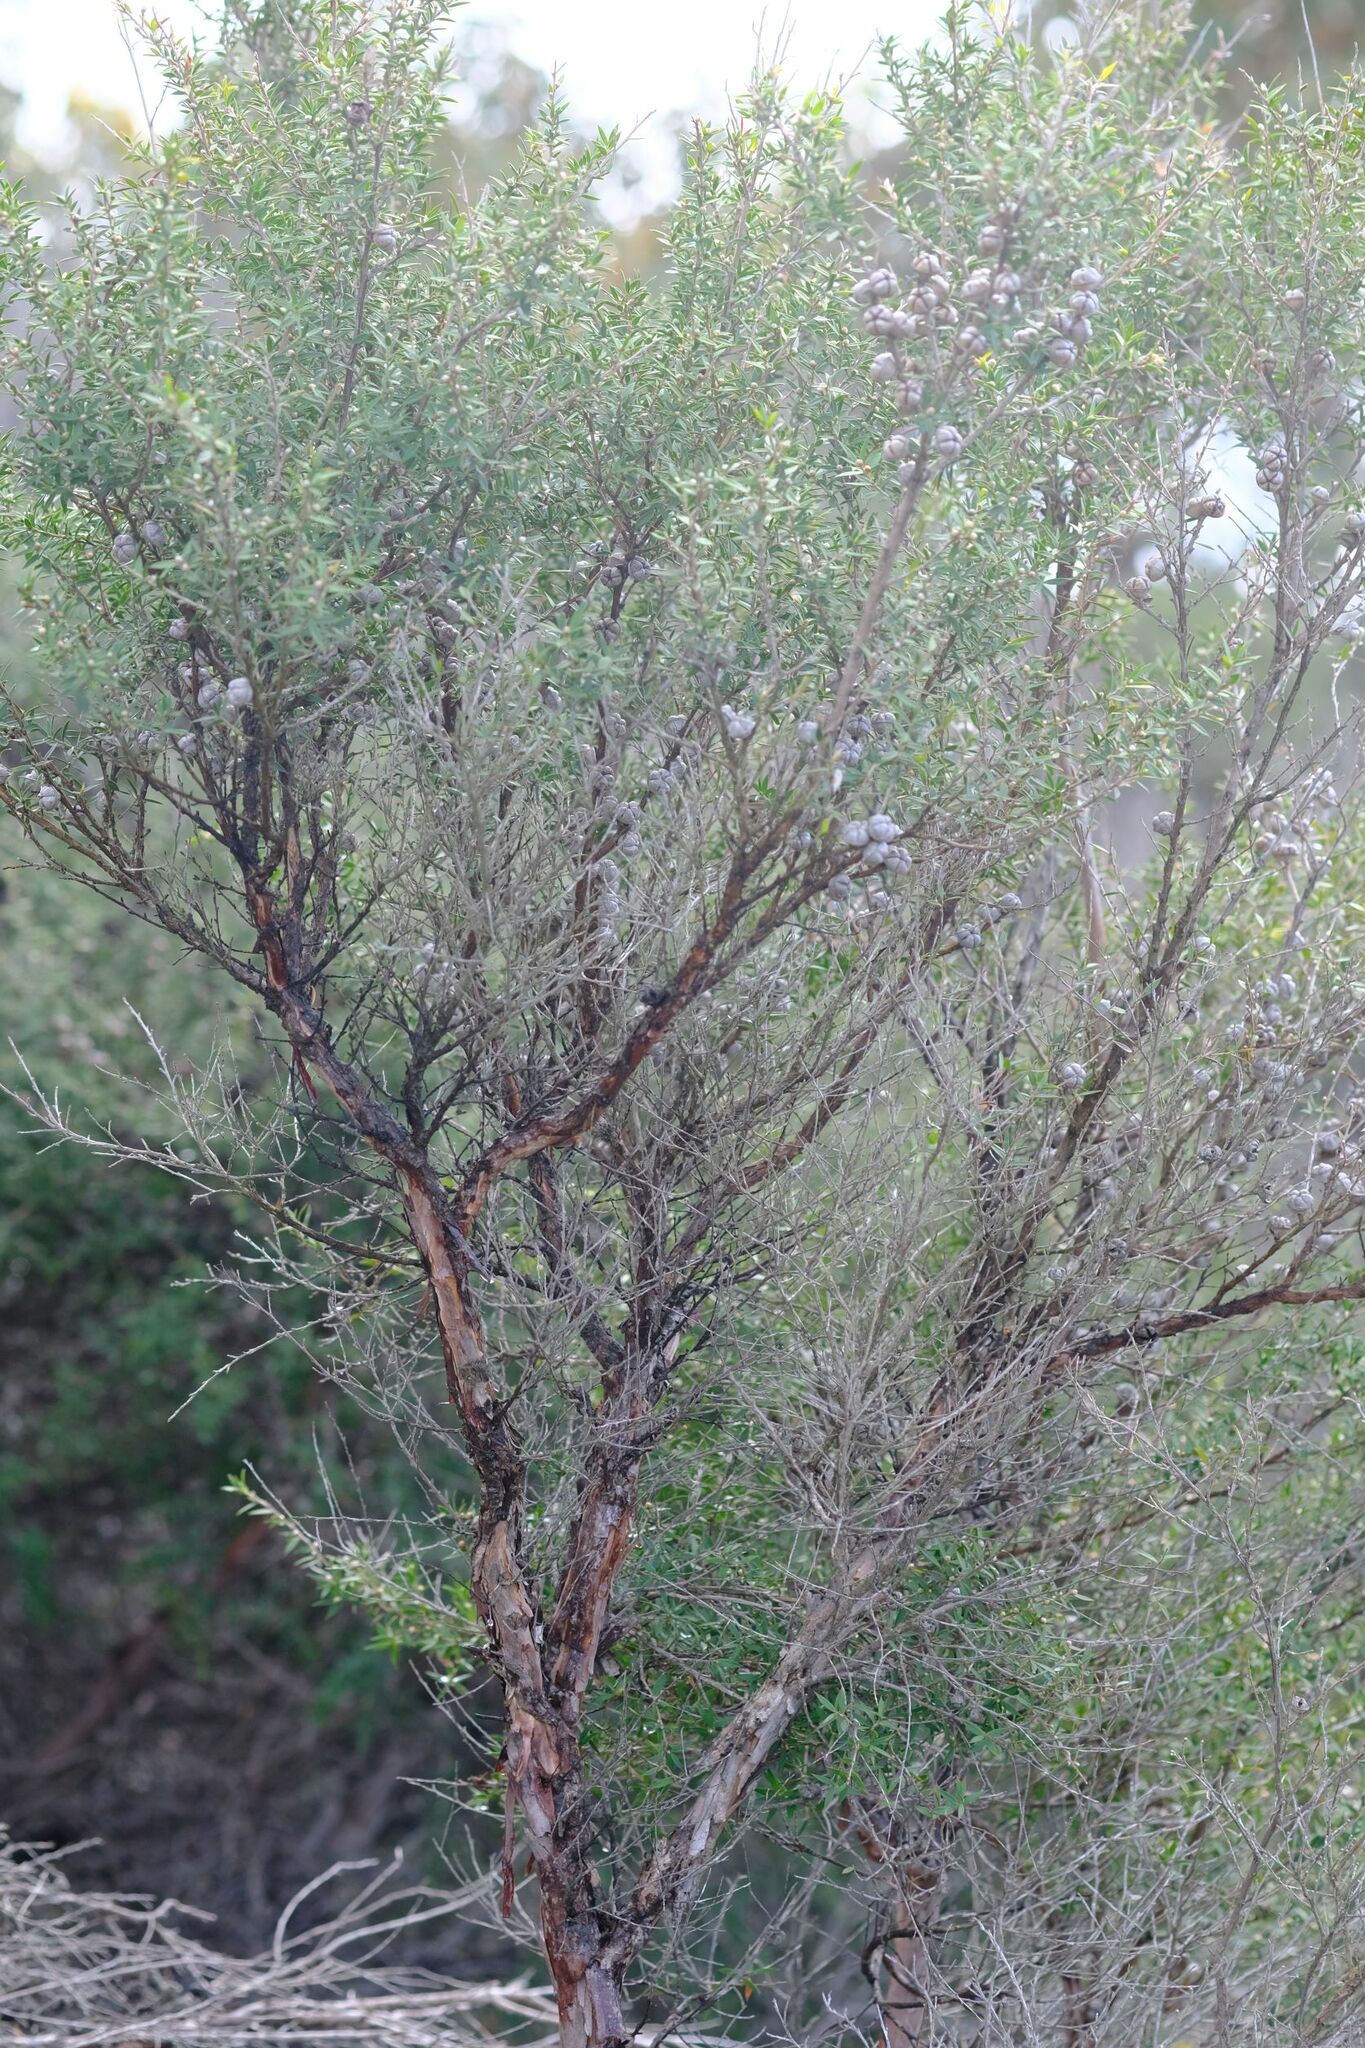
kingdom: Plantae
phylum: Tracheophyta
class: Magnoliopsida
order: Myrtales
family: Myrtaceae
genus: Leptospermum
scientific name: Leptospermum continentale
